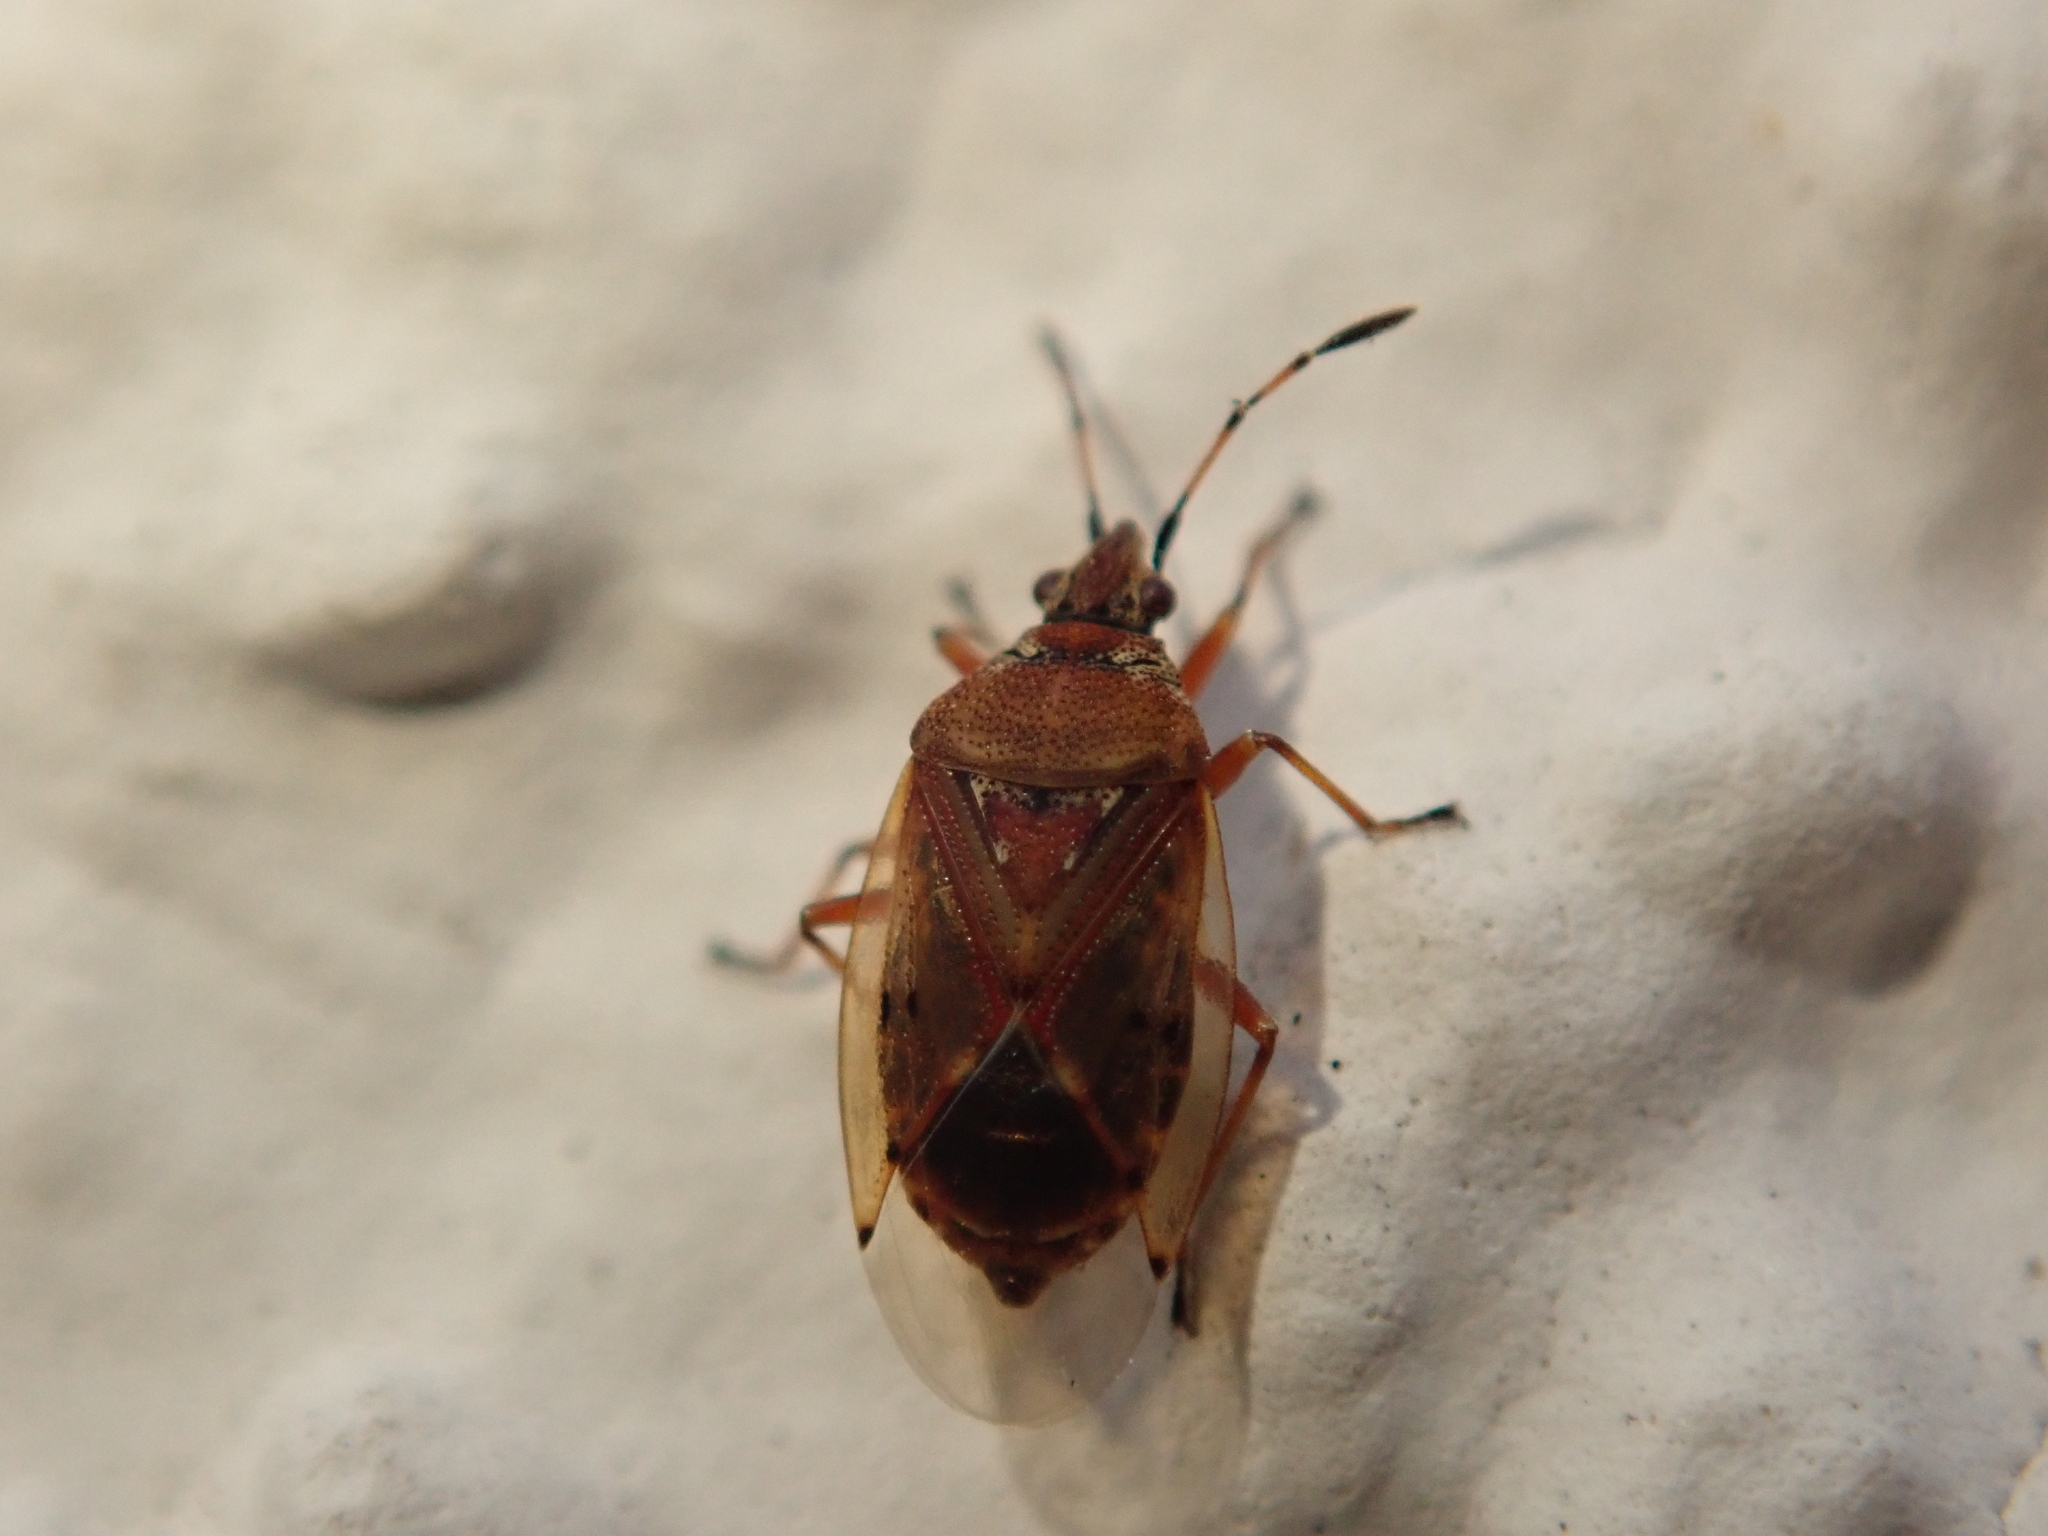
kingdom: Animalia
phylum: Arthropoda
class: Insecta
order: Hemiptera
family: Lygaeidae
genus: Kleidocerys
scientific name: Kleidocerys resedae
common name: Birch catkin bug
